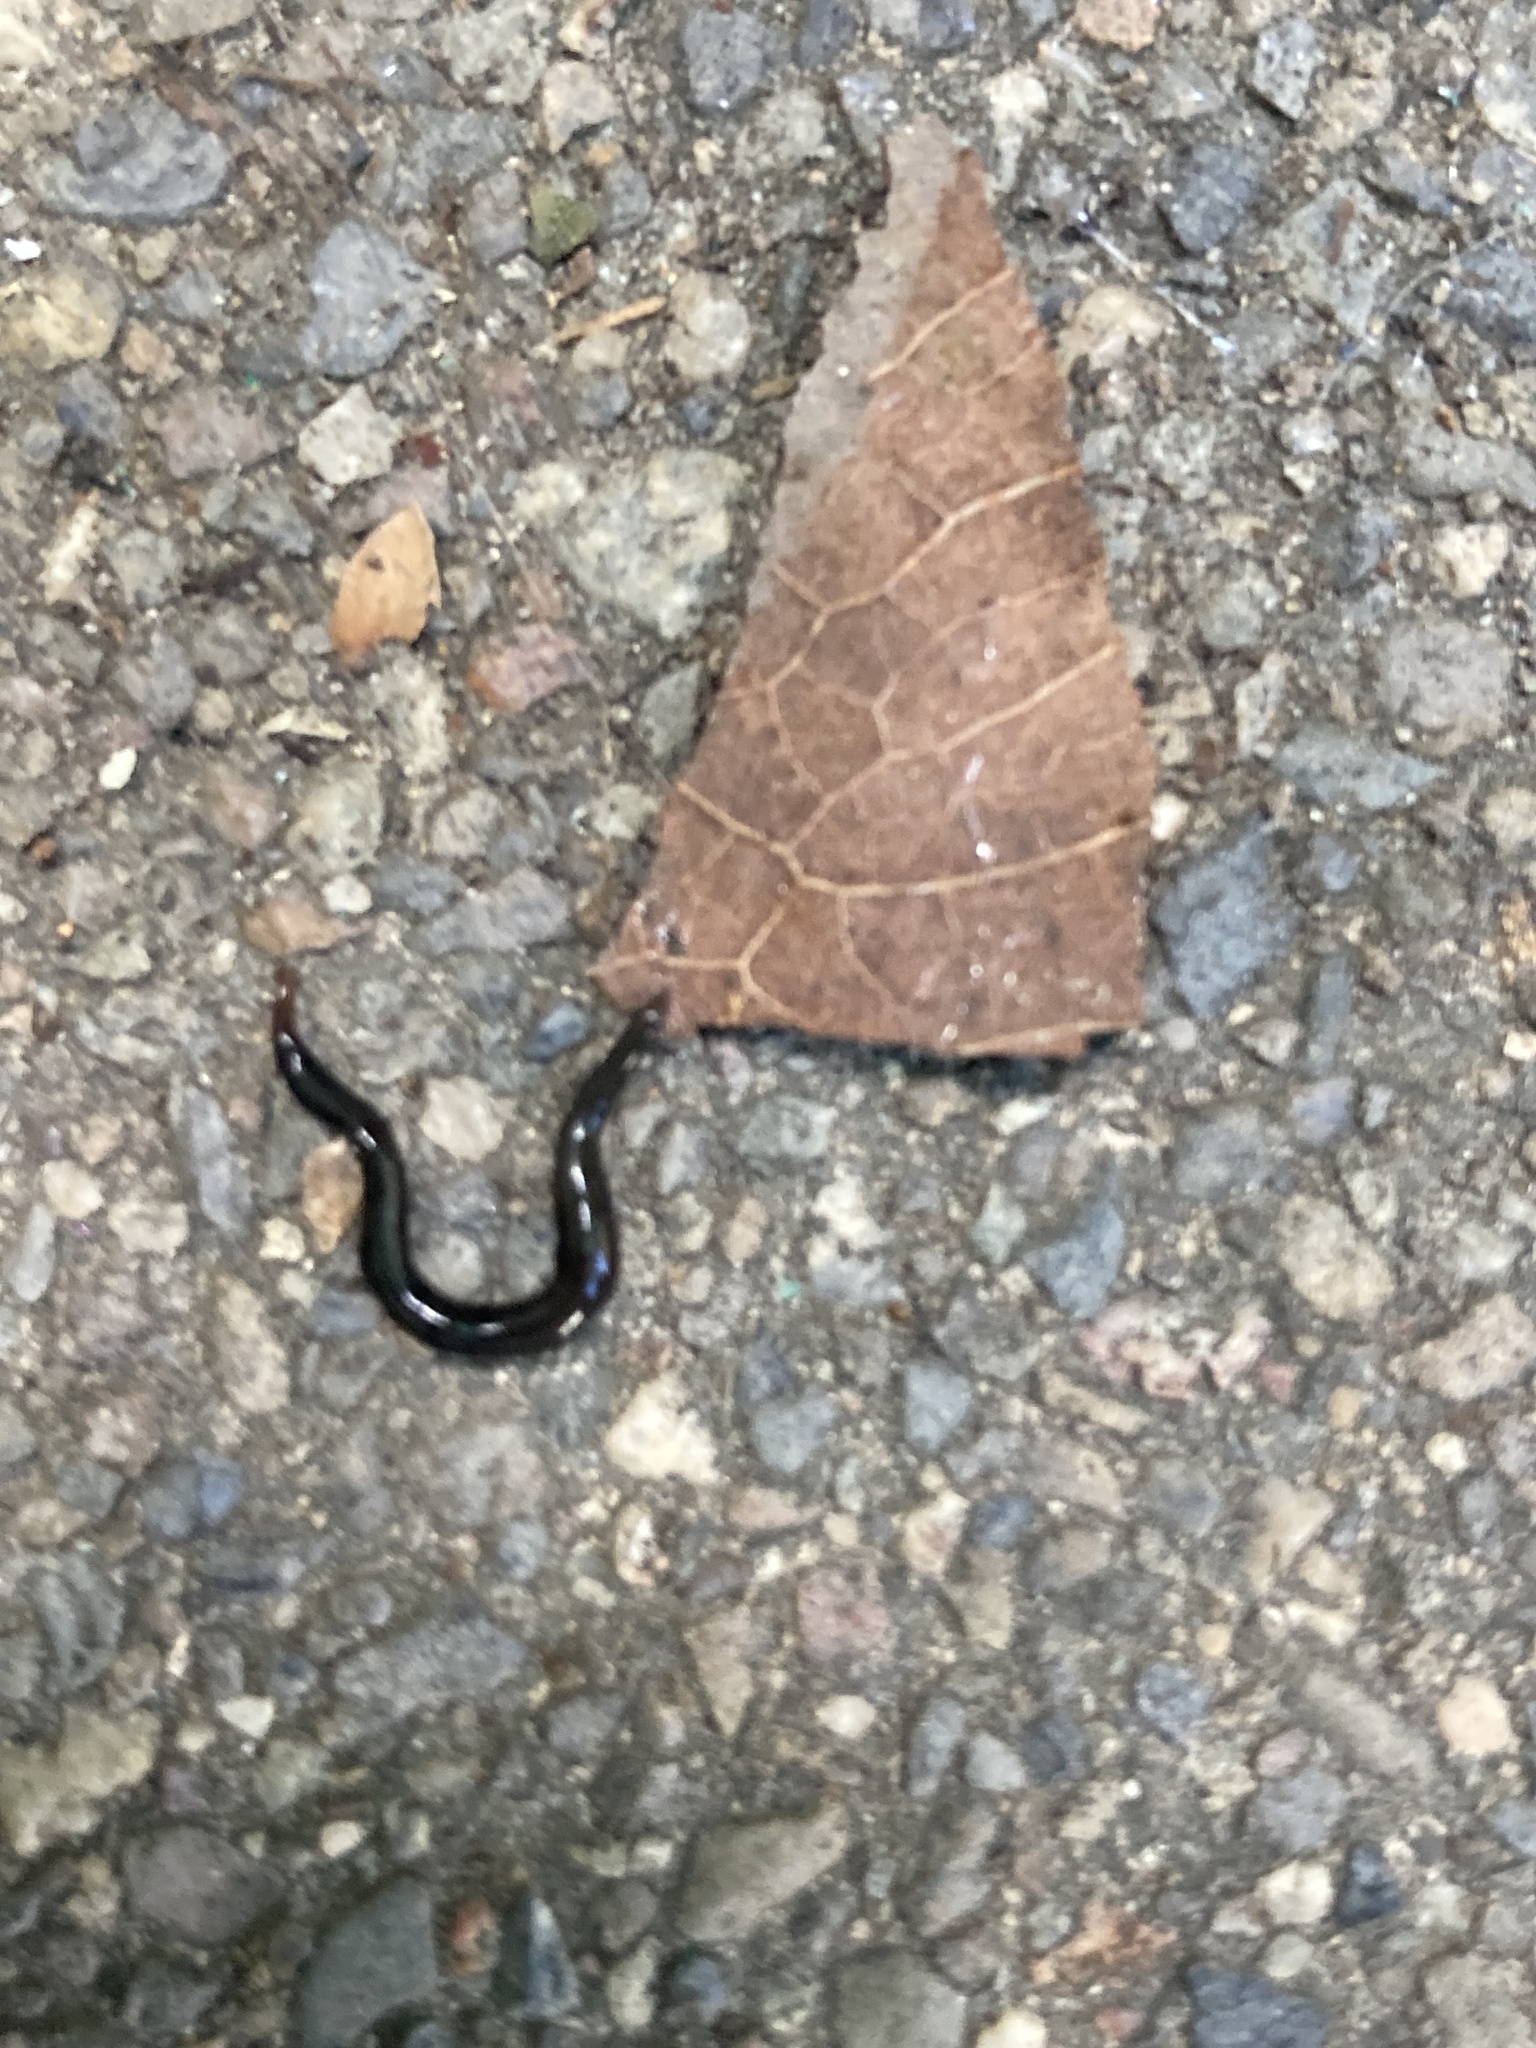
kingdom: Animalia
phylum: Platyhelminthes
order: Tricladida
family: Geoplanidae
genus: Endeavouria
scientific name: Endeavouria septemlineata
